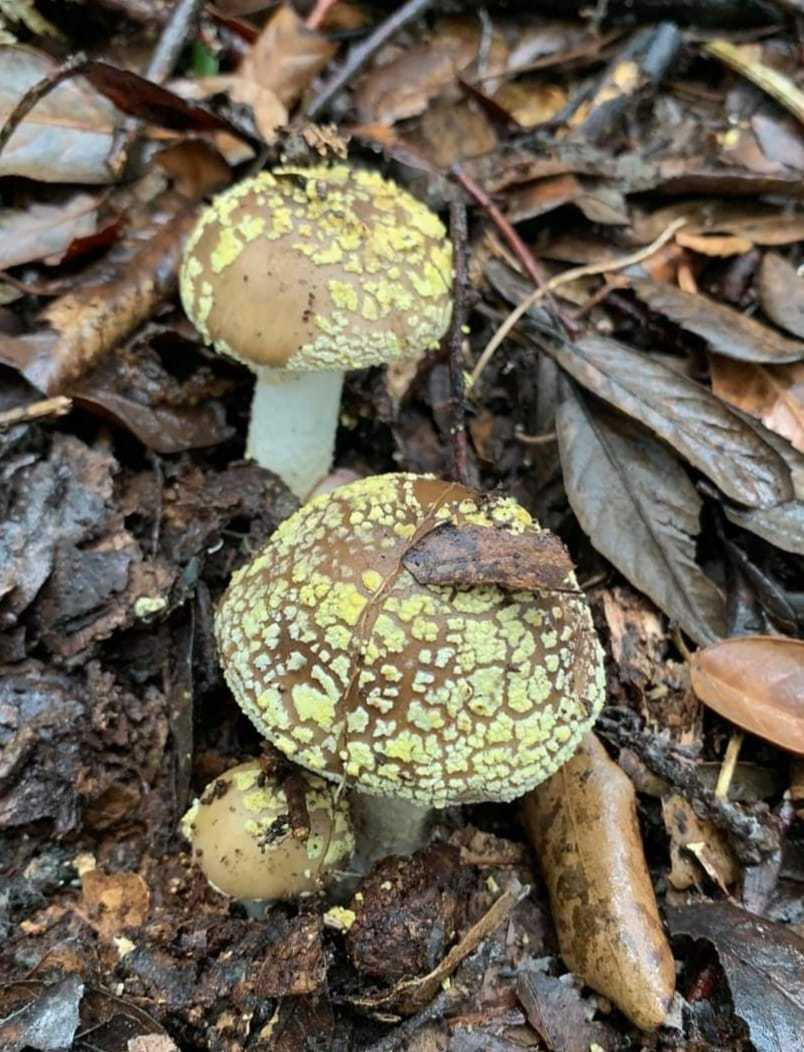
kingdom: Fungi
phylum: Basidiomycota
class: Agaricomycetes
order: Agaricales
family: Amanitaceae
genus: Amanita
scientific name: Amanita franchetii
